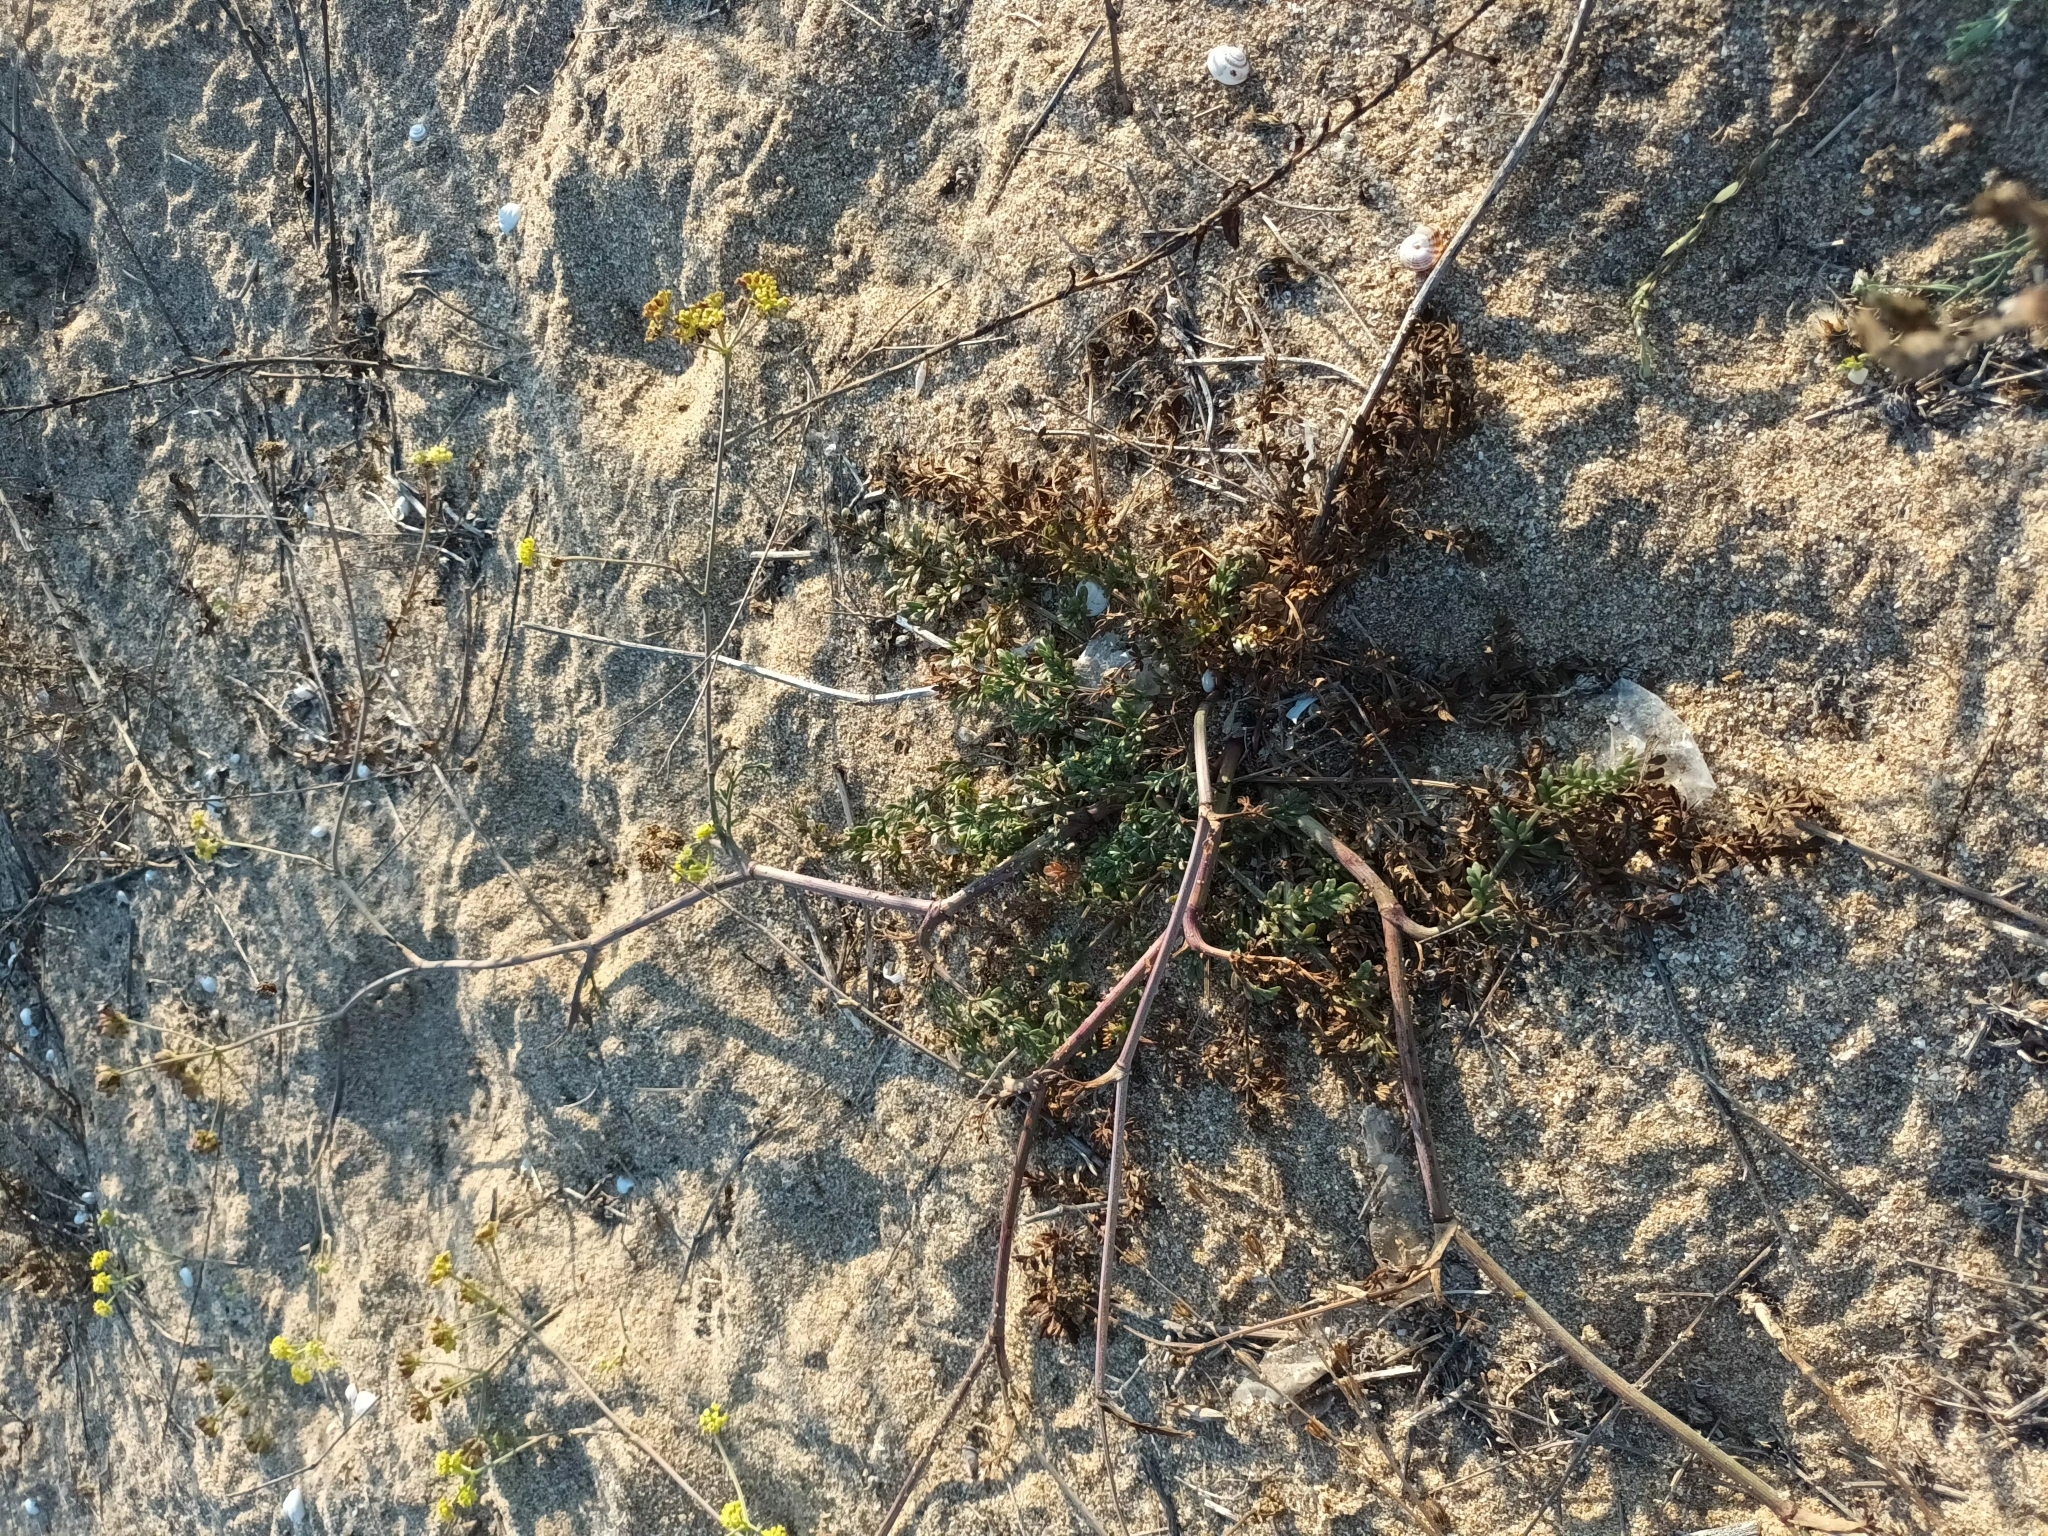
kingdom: Plantae
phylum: Tracheophyta
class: Magnoliopsida
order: Apiales
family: Apiaceae
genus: Taeniopetalum
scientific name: Taeniopetalum obtusifolium
